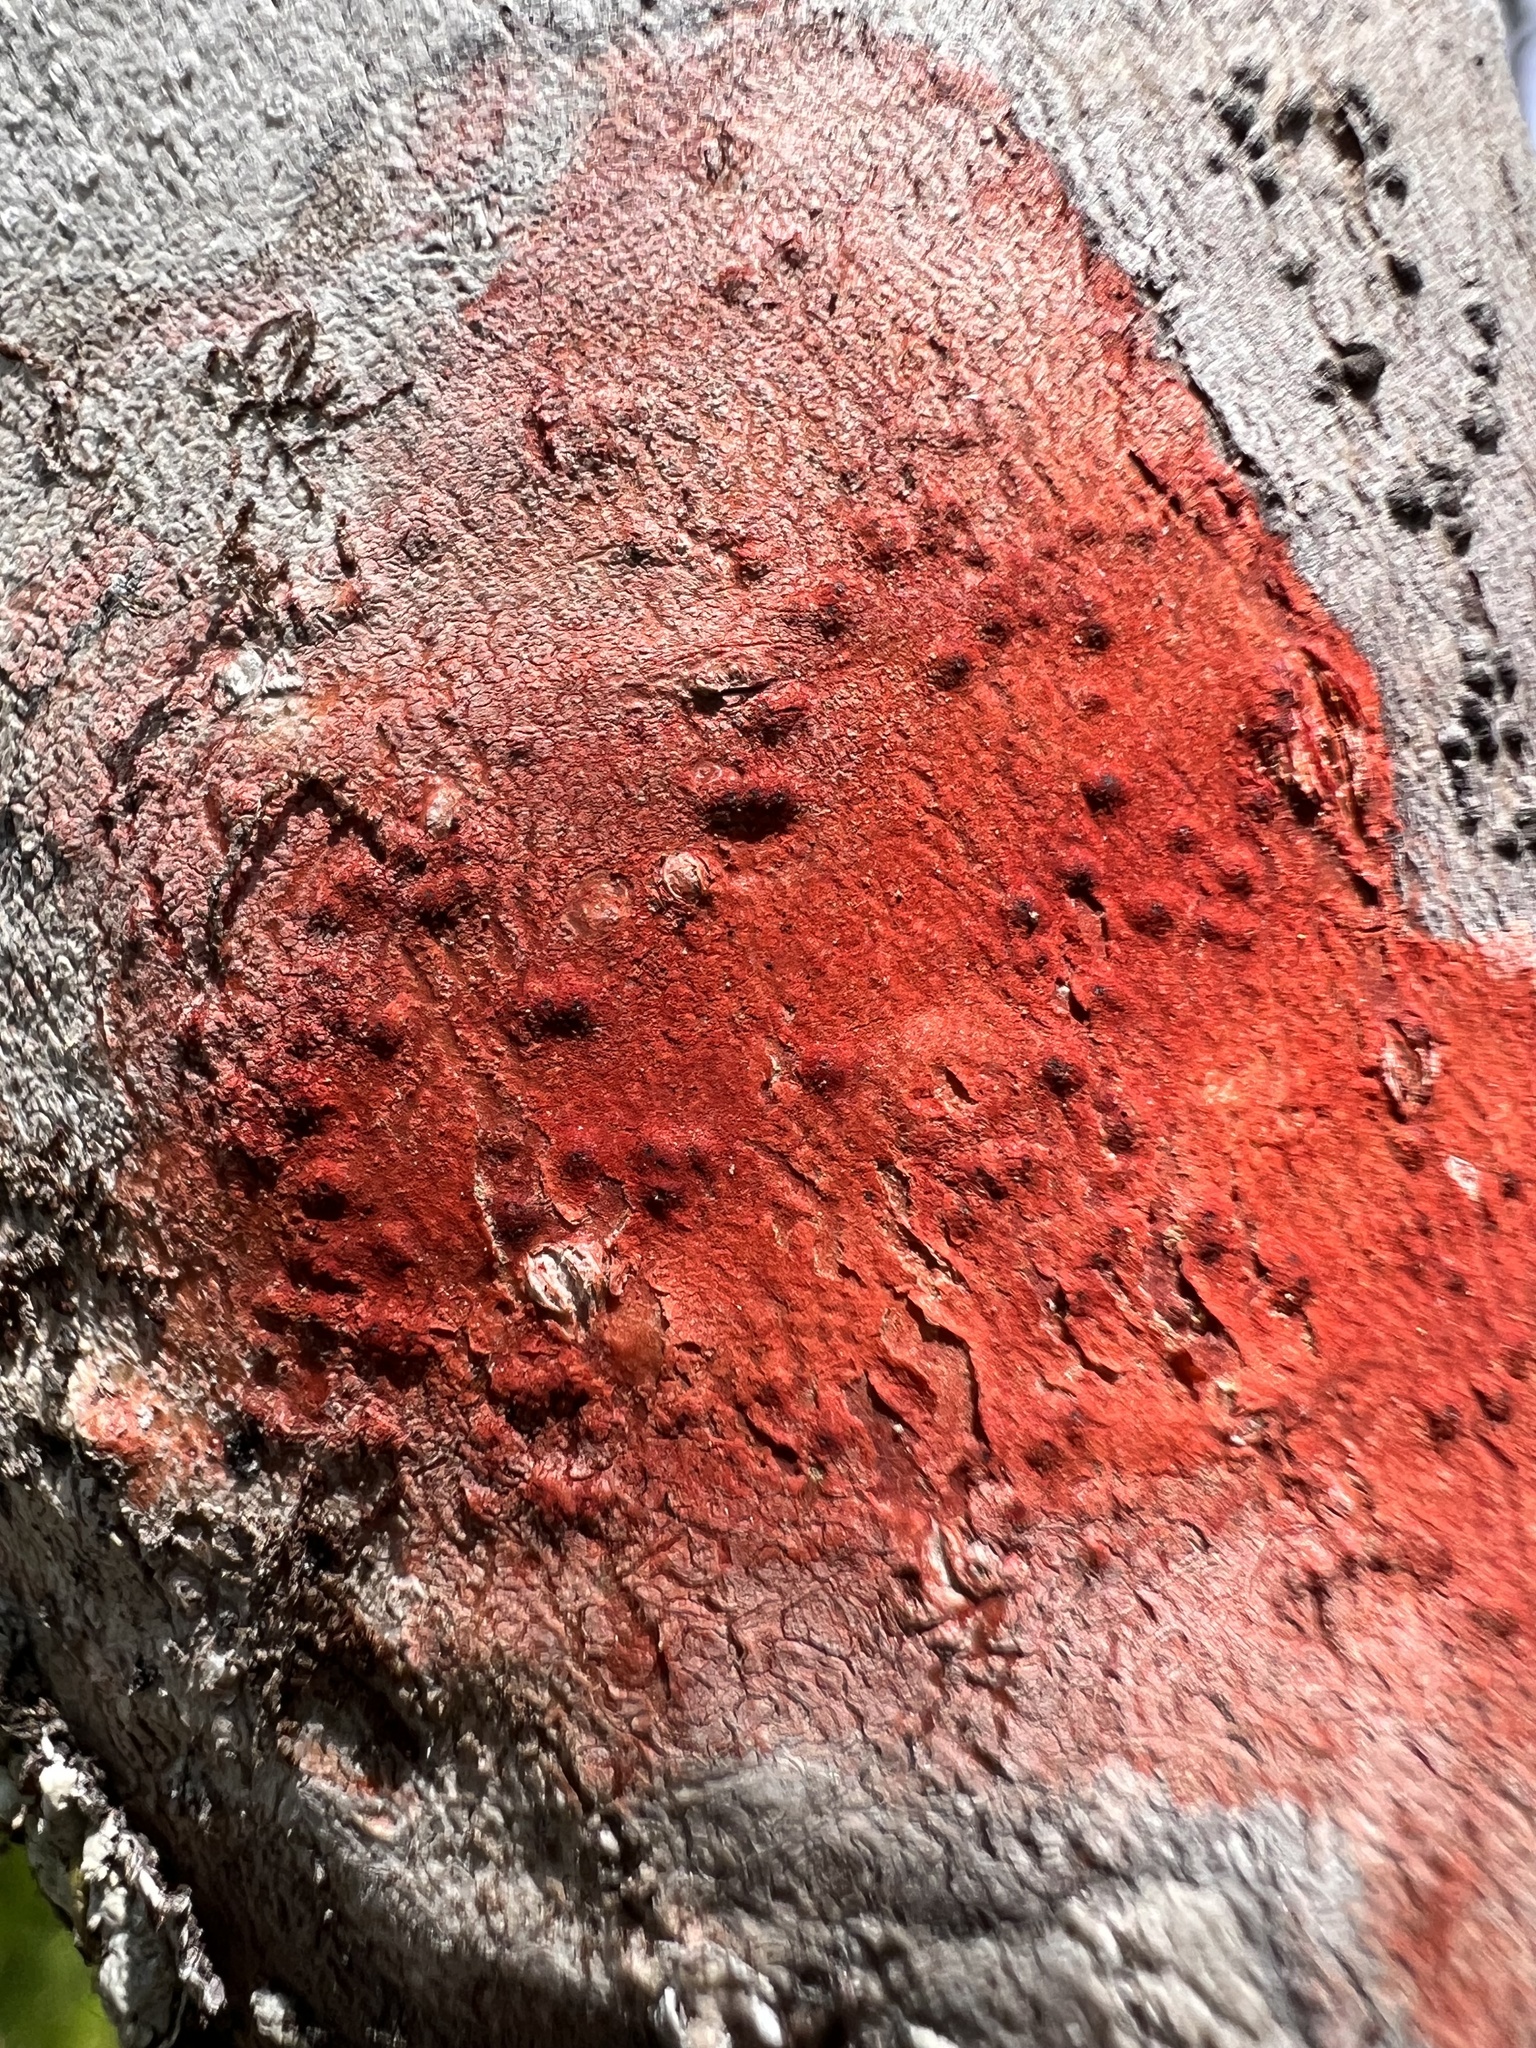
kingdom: Fungi
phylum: Ascomycota
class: Eurotiomycetes
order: Pyrenulales
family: Pyrenulaceae
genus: Pyrenula
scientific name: Pyrenula cruenta
